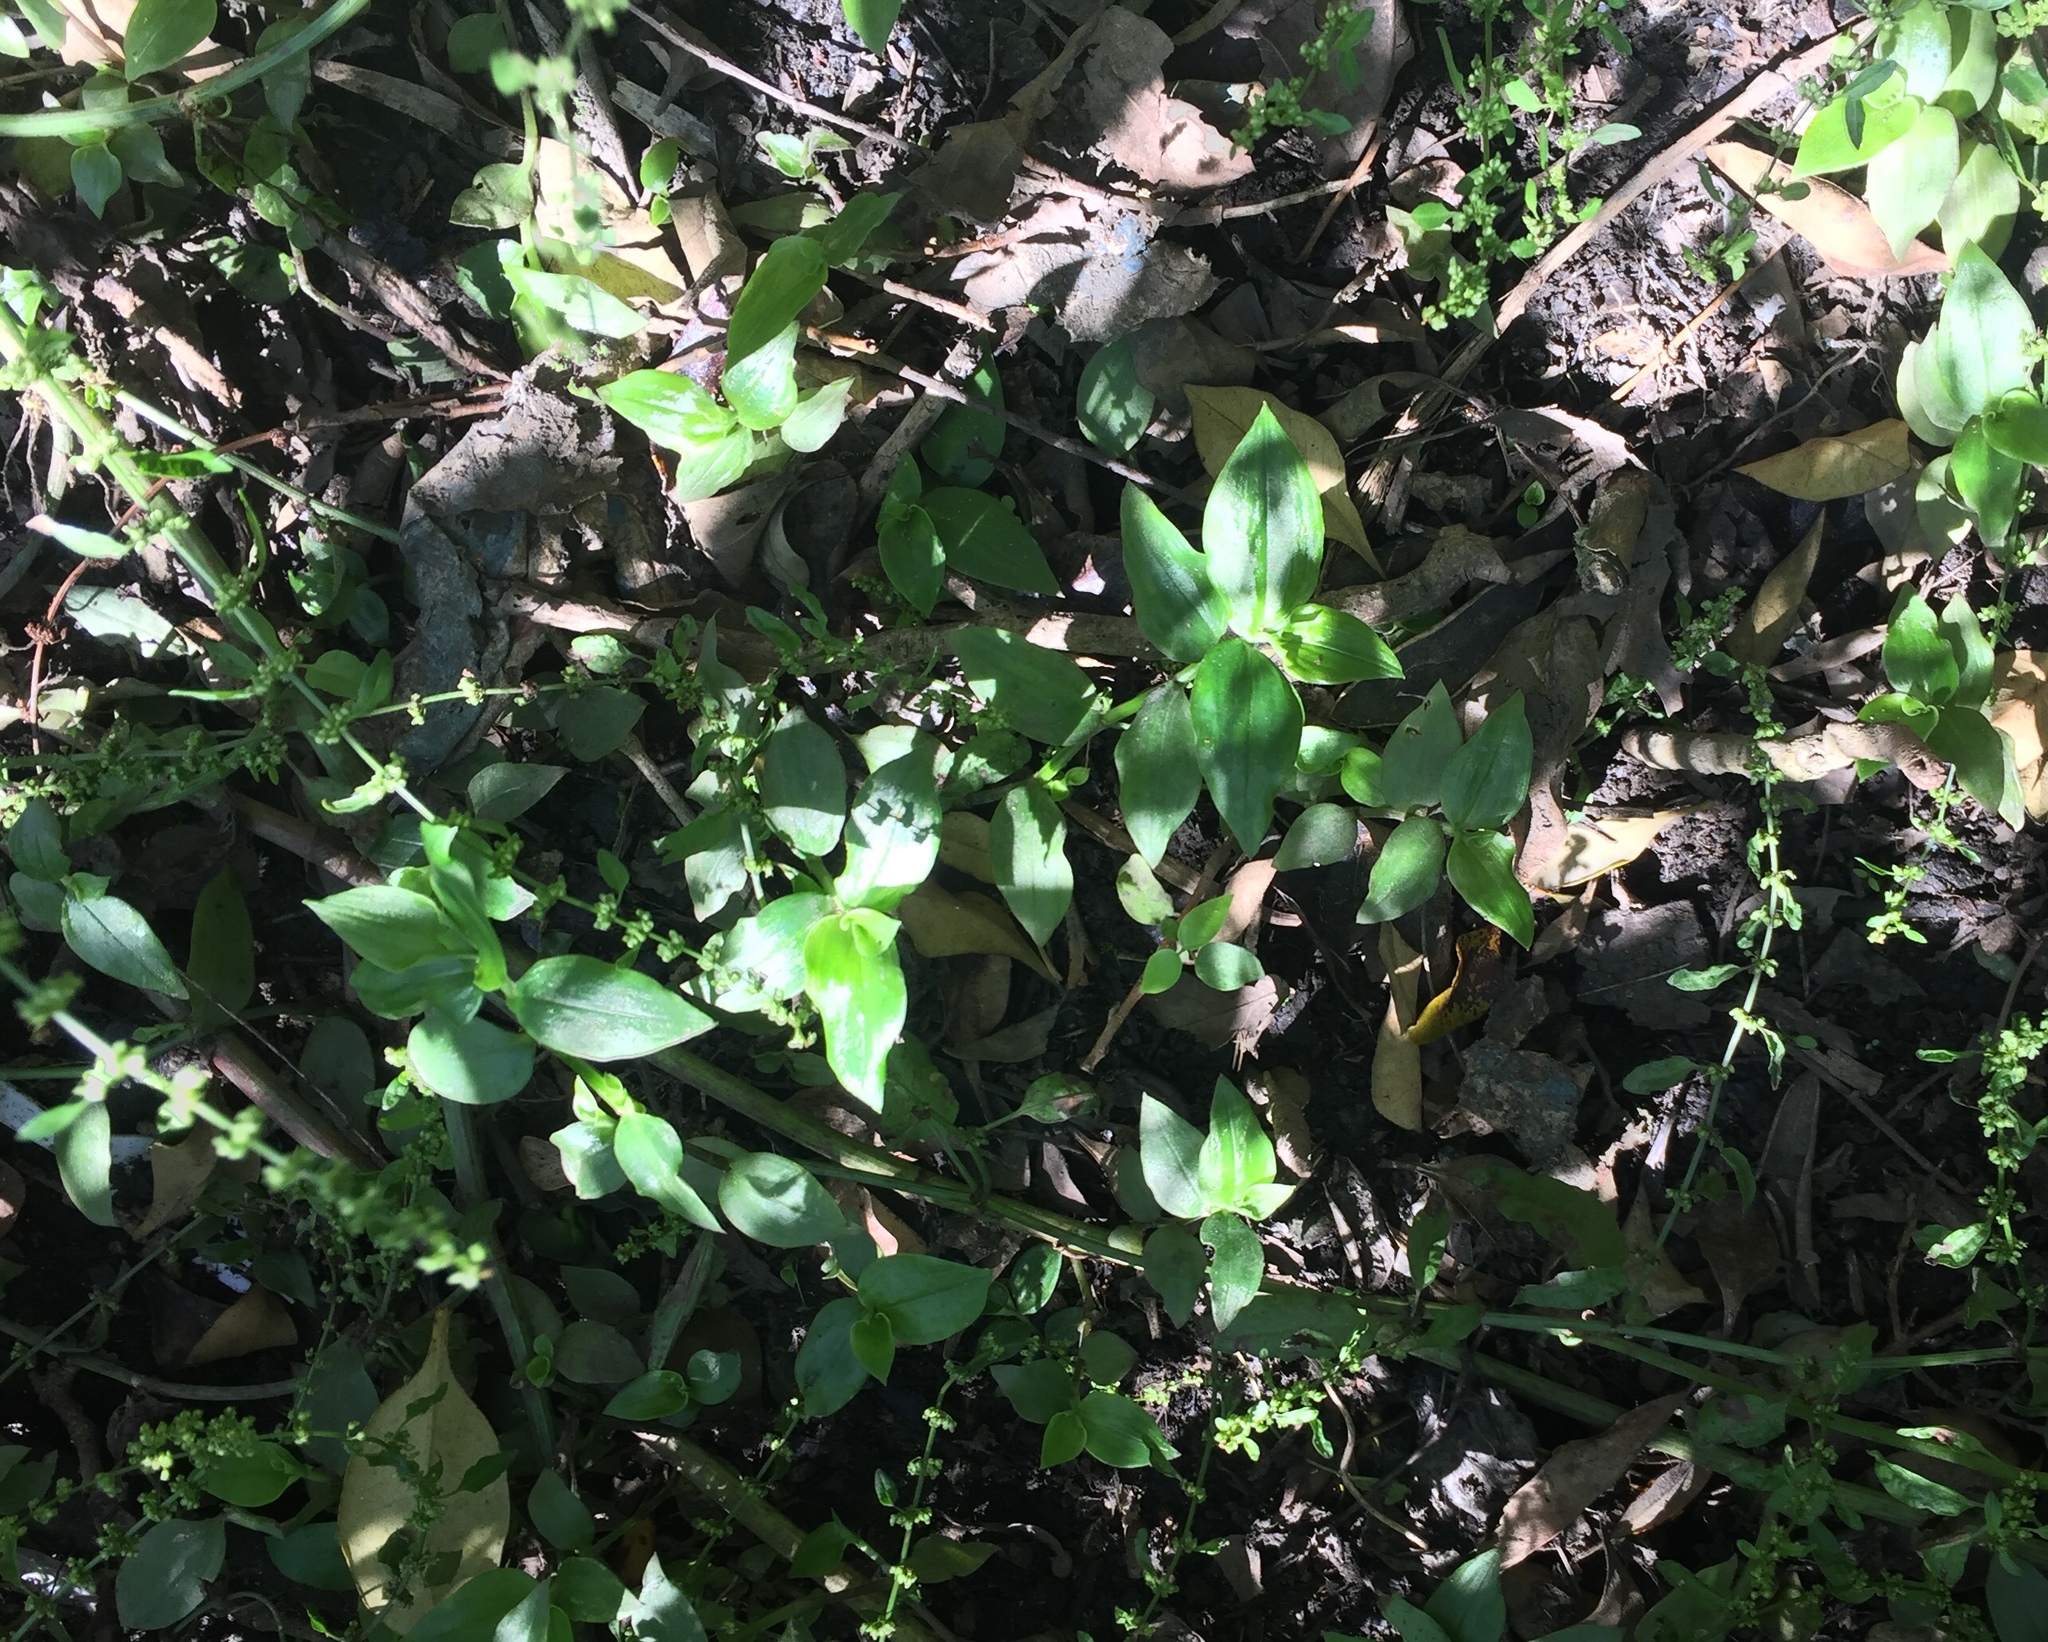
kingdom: Plantae
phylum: Tracheophyta
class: Liliopsida
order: Commelinales
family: Commelinaceae
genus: Tradescantia
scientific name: Tradescantia fluminensis
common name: Wandering-jew
